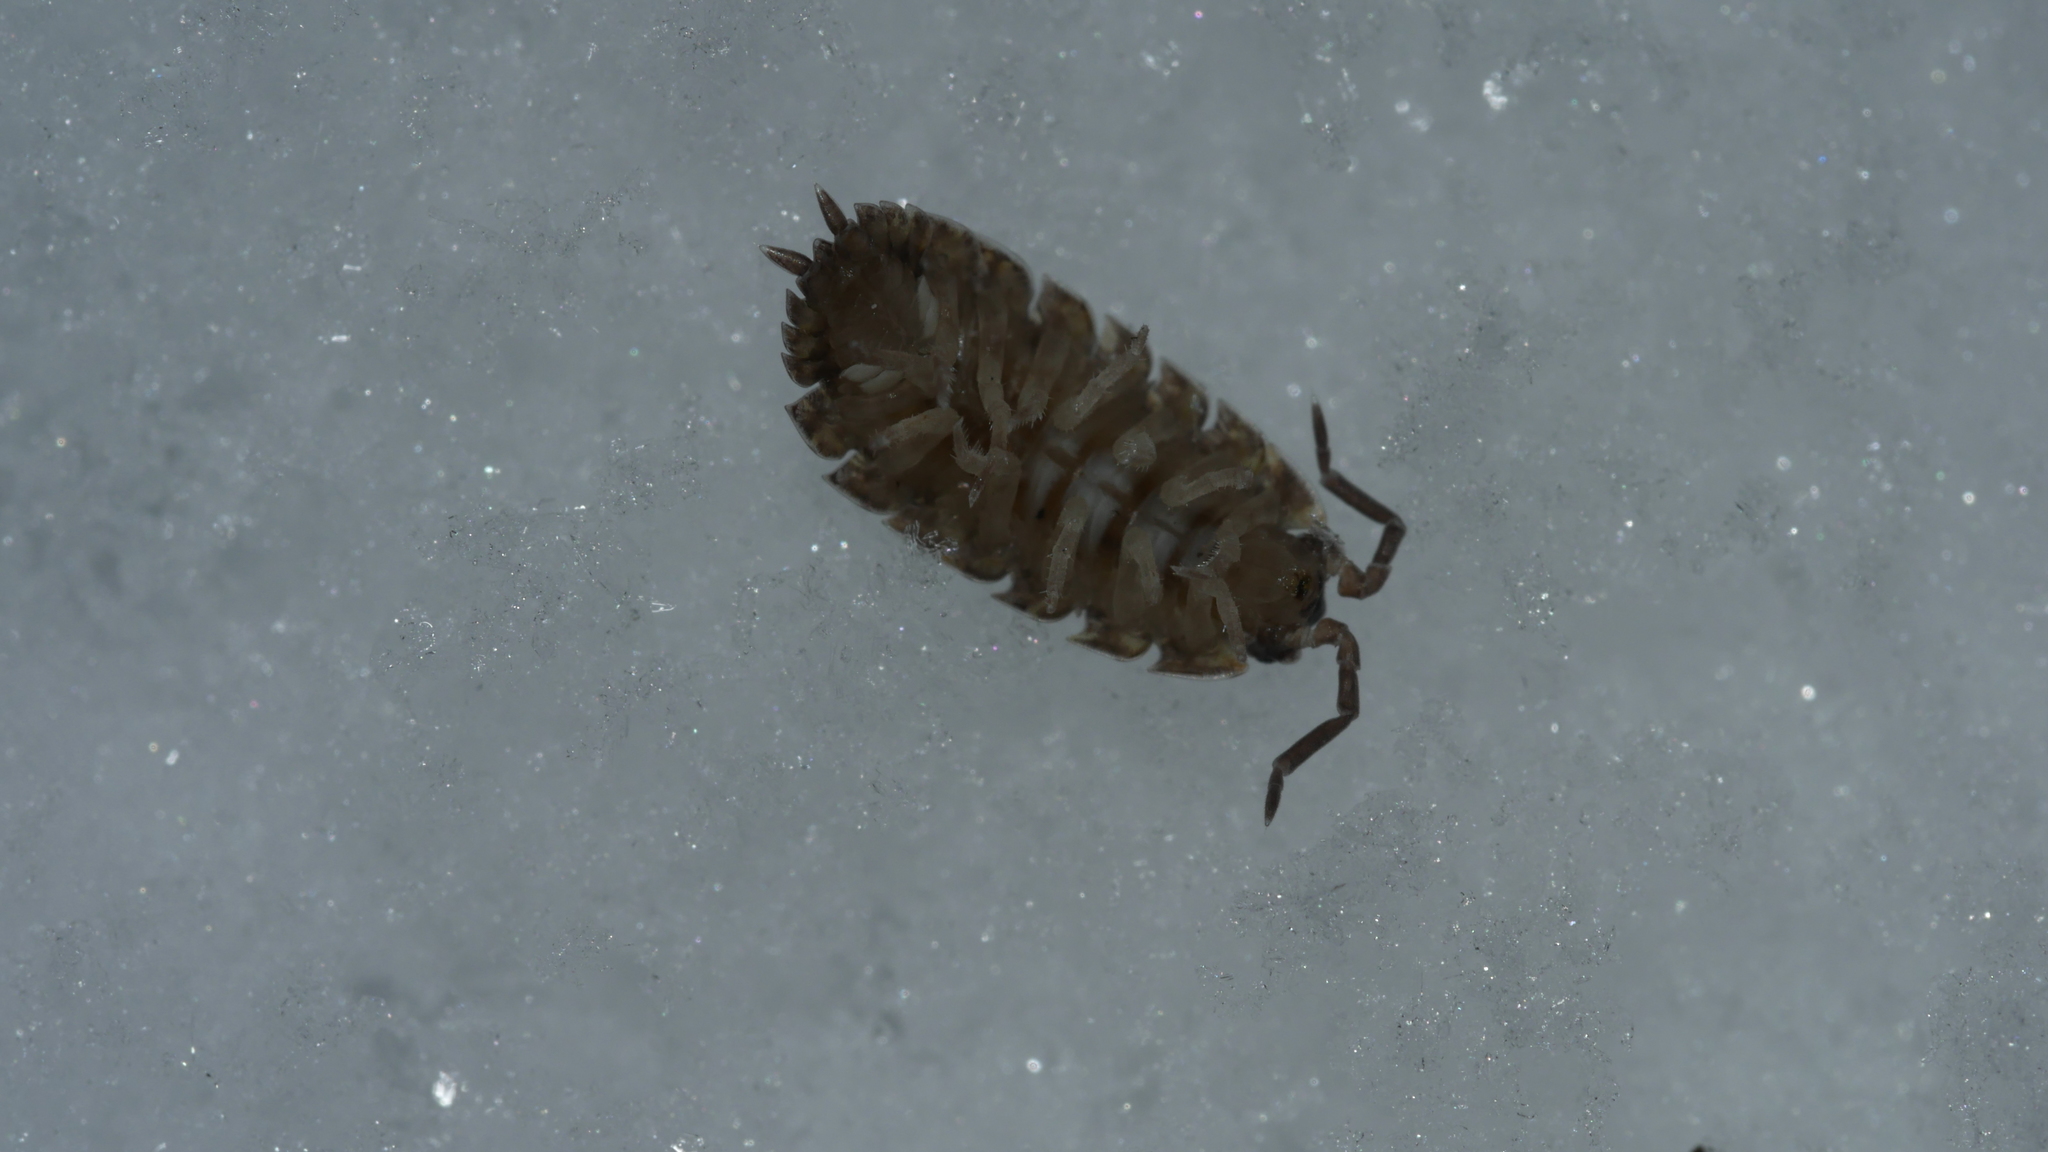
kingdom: Animalia
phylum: Arthropoda
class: Malacostraca
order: Isopoda
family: Porcellionidae
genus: Porcellio
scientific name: Porcellio scaber
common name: Common rough woodlouse
